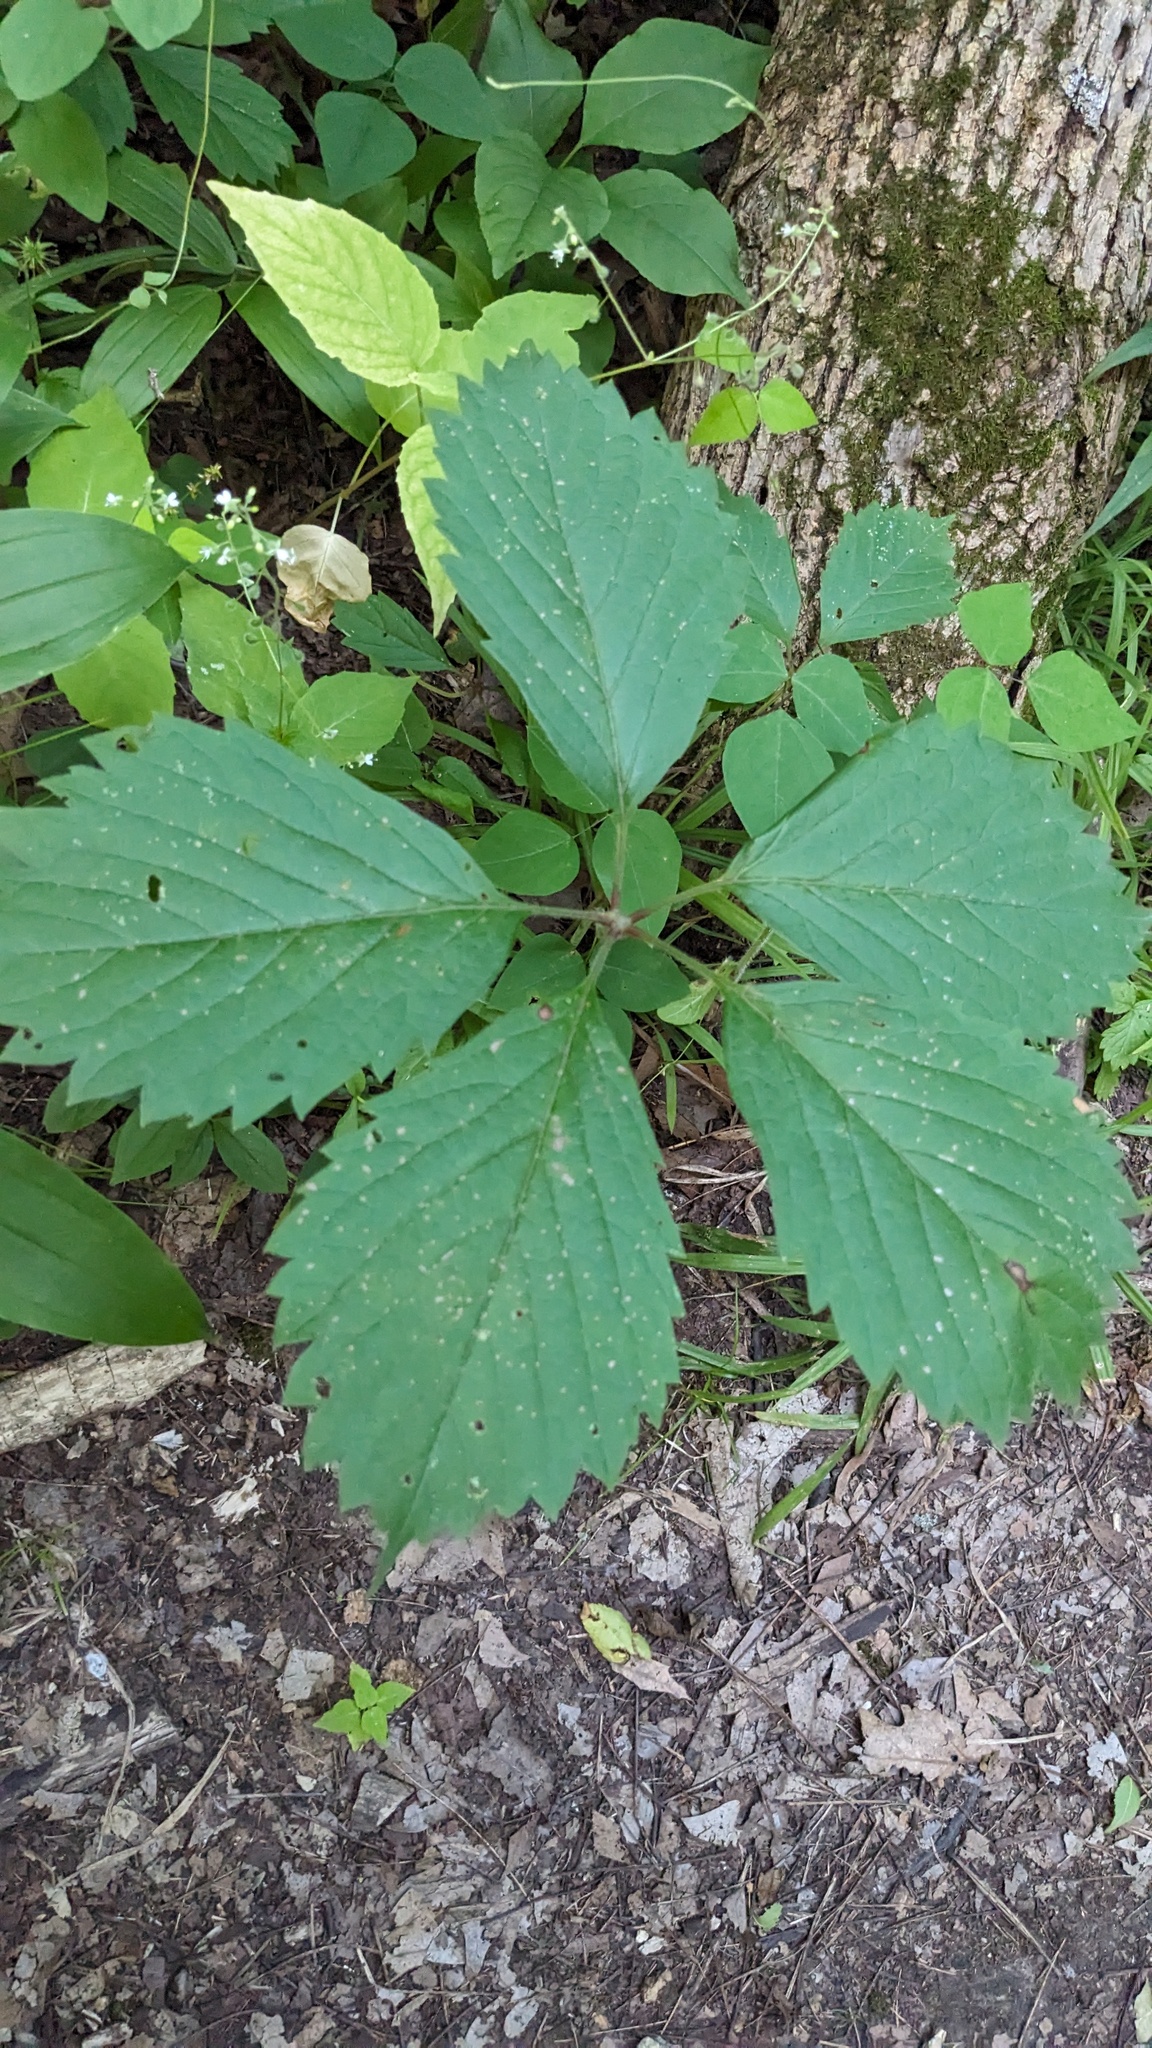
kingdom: Plantae
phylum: Tracheophyta
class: Magnoliopsida
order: Vitales
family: Vitaceae
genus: Parthenocissus
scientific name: Parthenocissus inserta
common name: False virginia-creeper
